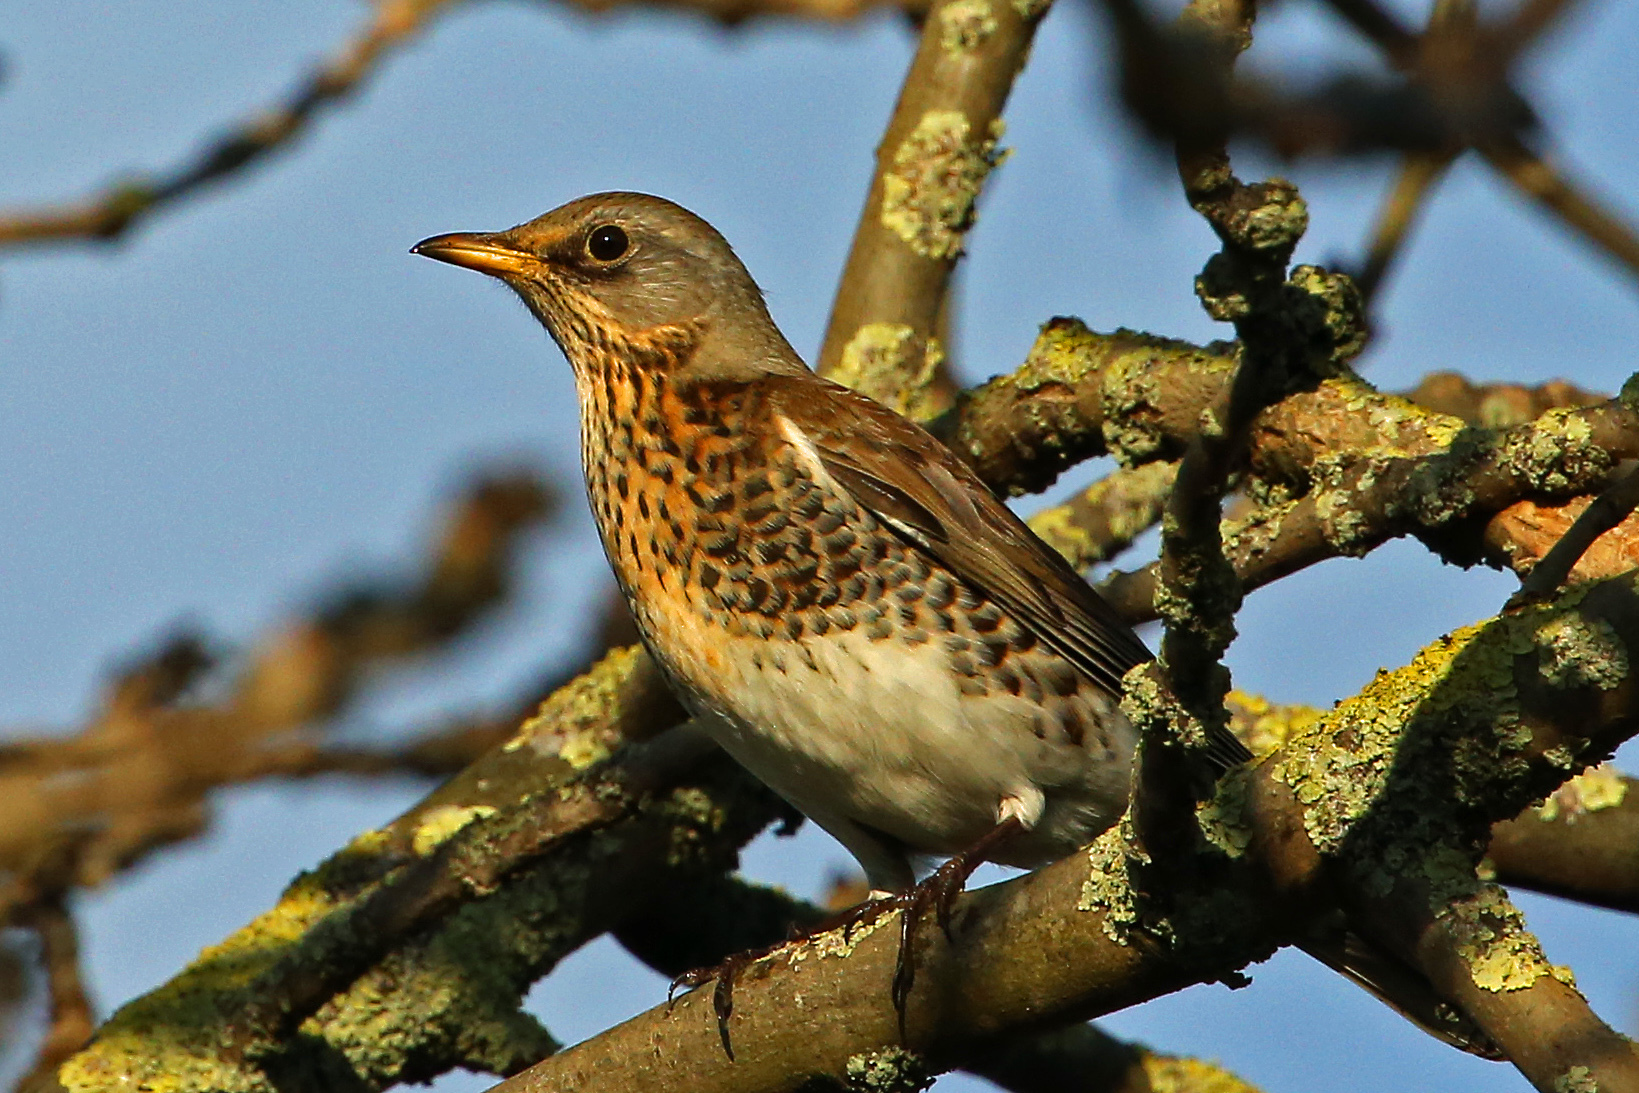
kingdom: Animalia
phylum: Chordata
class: Aves
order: Passeriformes
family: Turdidae
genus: Turdus
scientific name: Turdus pilaris
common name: Fieldfare
